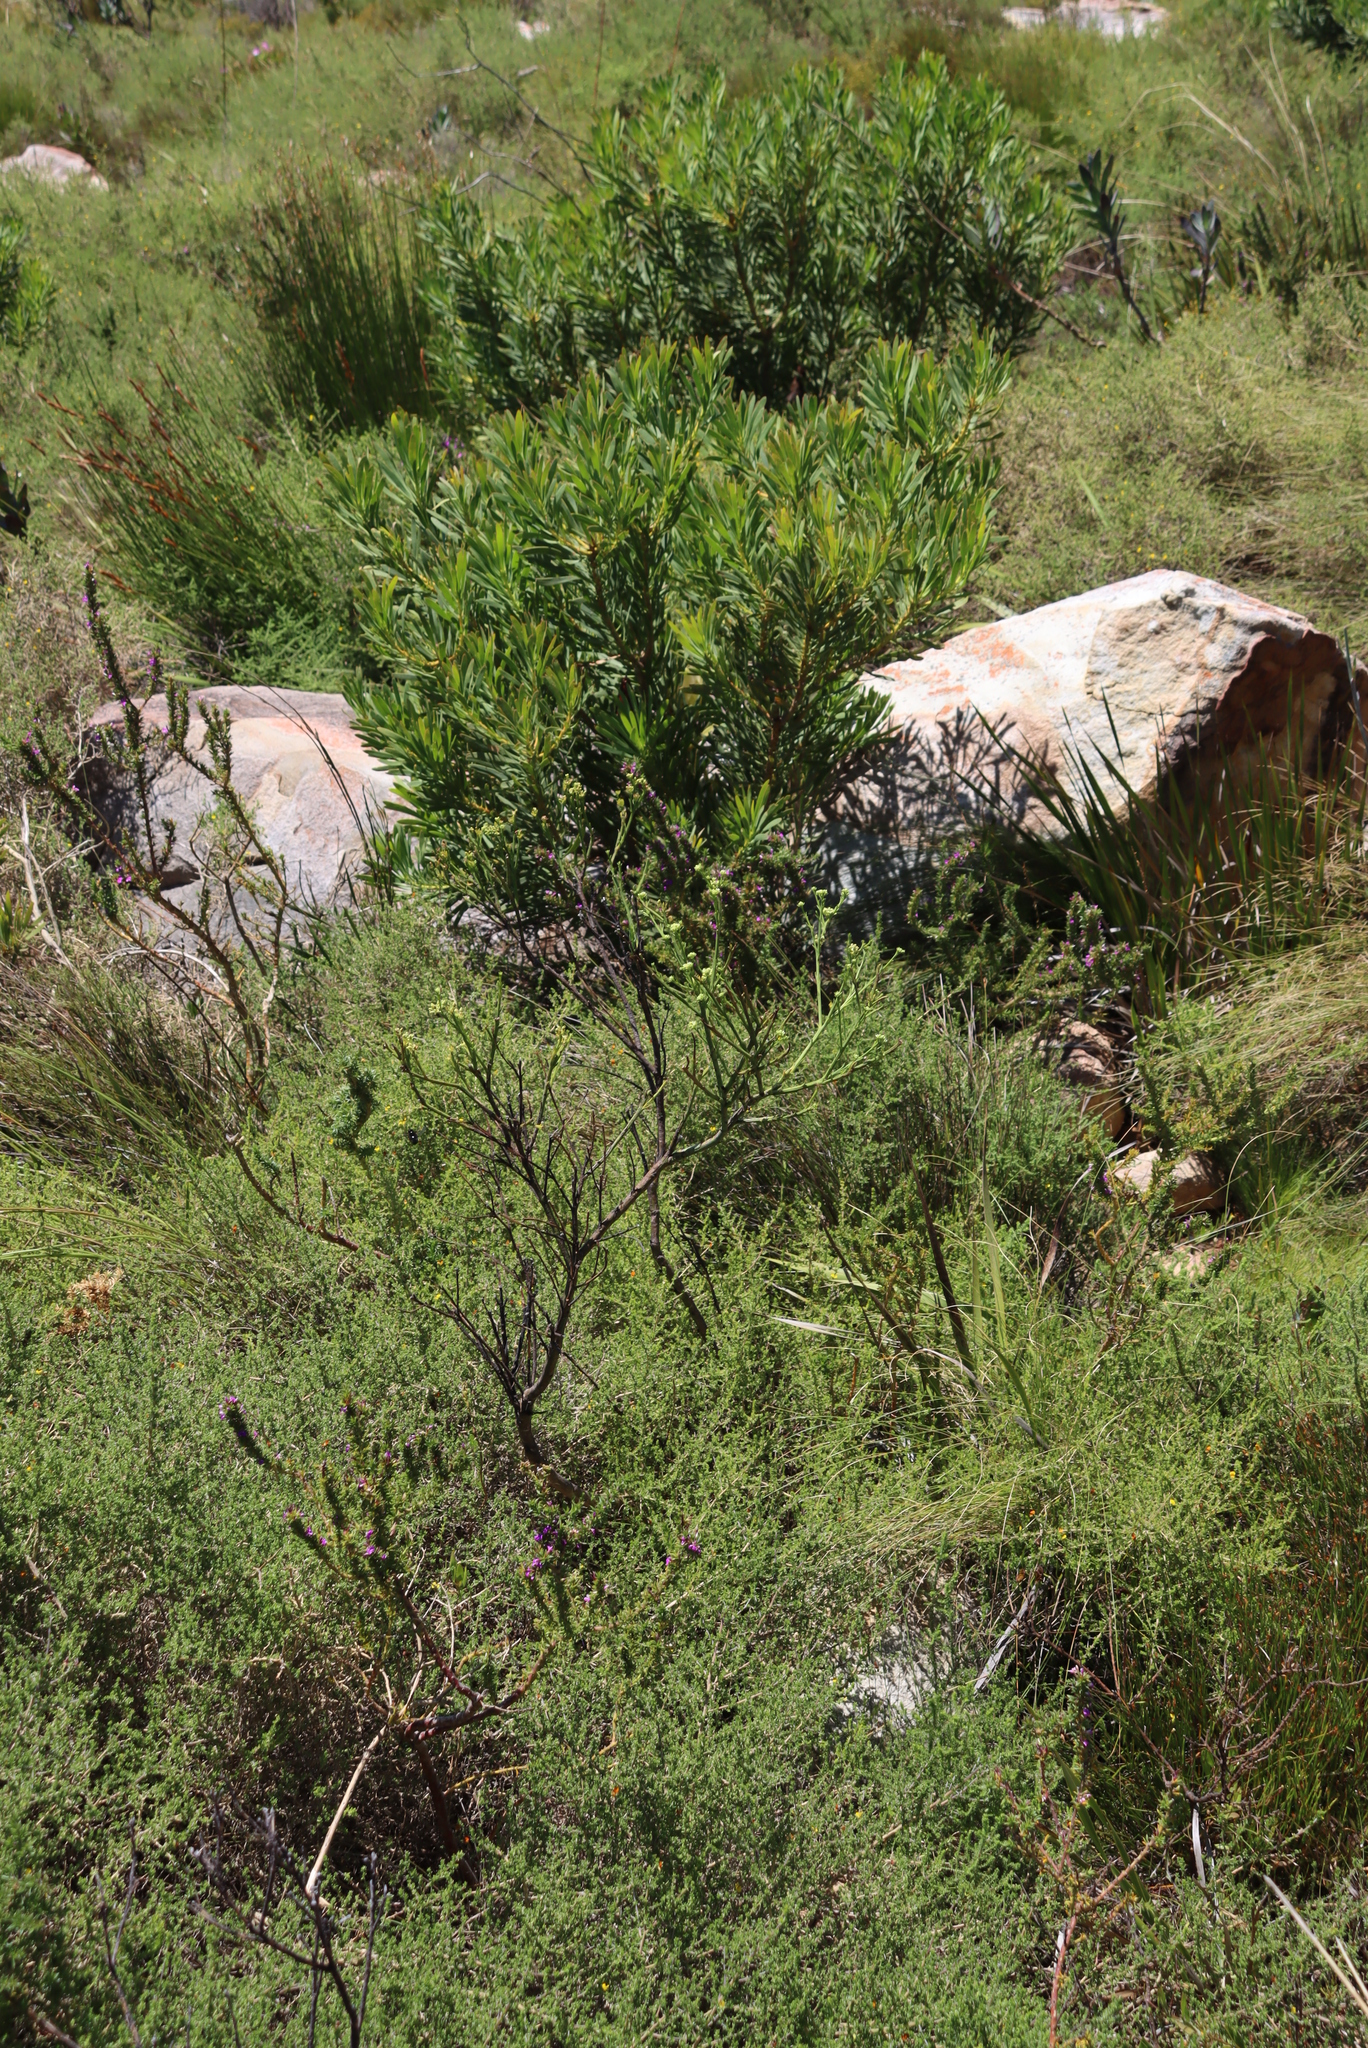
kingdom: Plantae
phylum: Tracheophyta
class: Magnoliopsida
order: Proteales
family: Proteaceae
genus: Protea
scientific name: Protea repens
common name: Sugarbush
